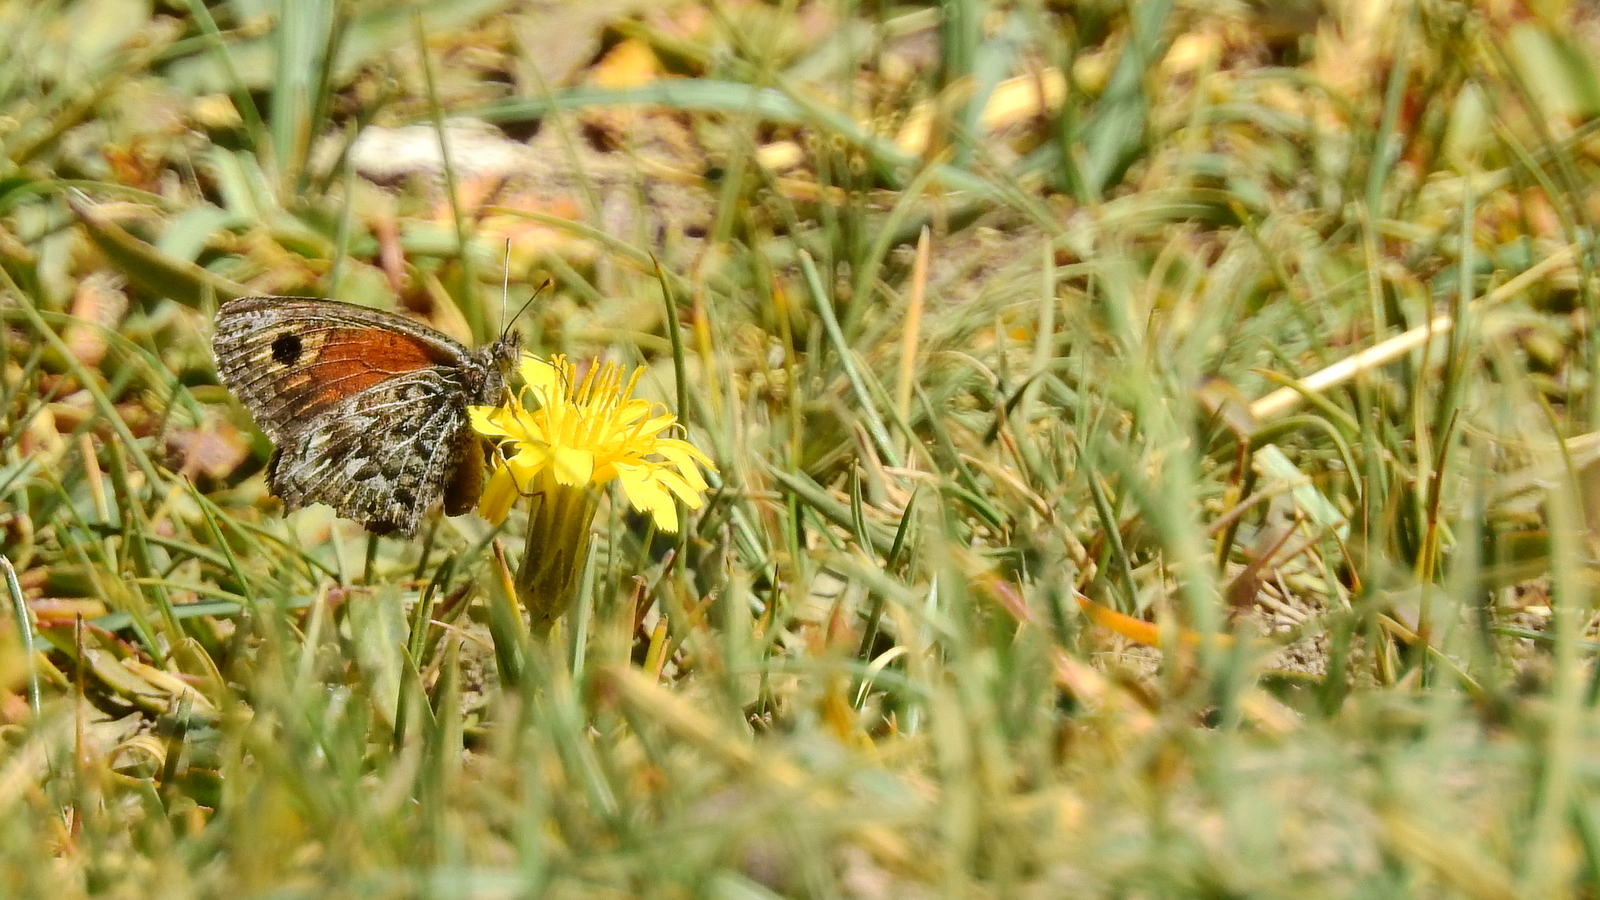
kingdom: Animalia
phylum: Arthropoda
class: Insecta
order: Lepidoptera
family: Nymphalidae
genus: Argyrophorus
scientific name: Argyrophorus
